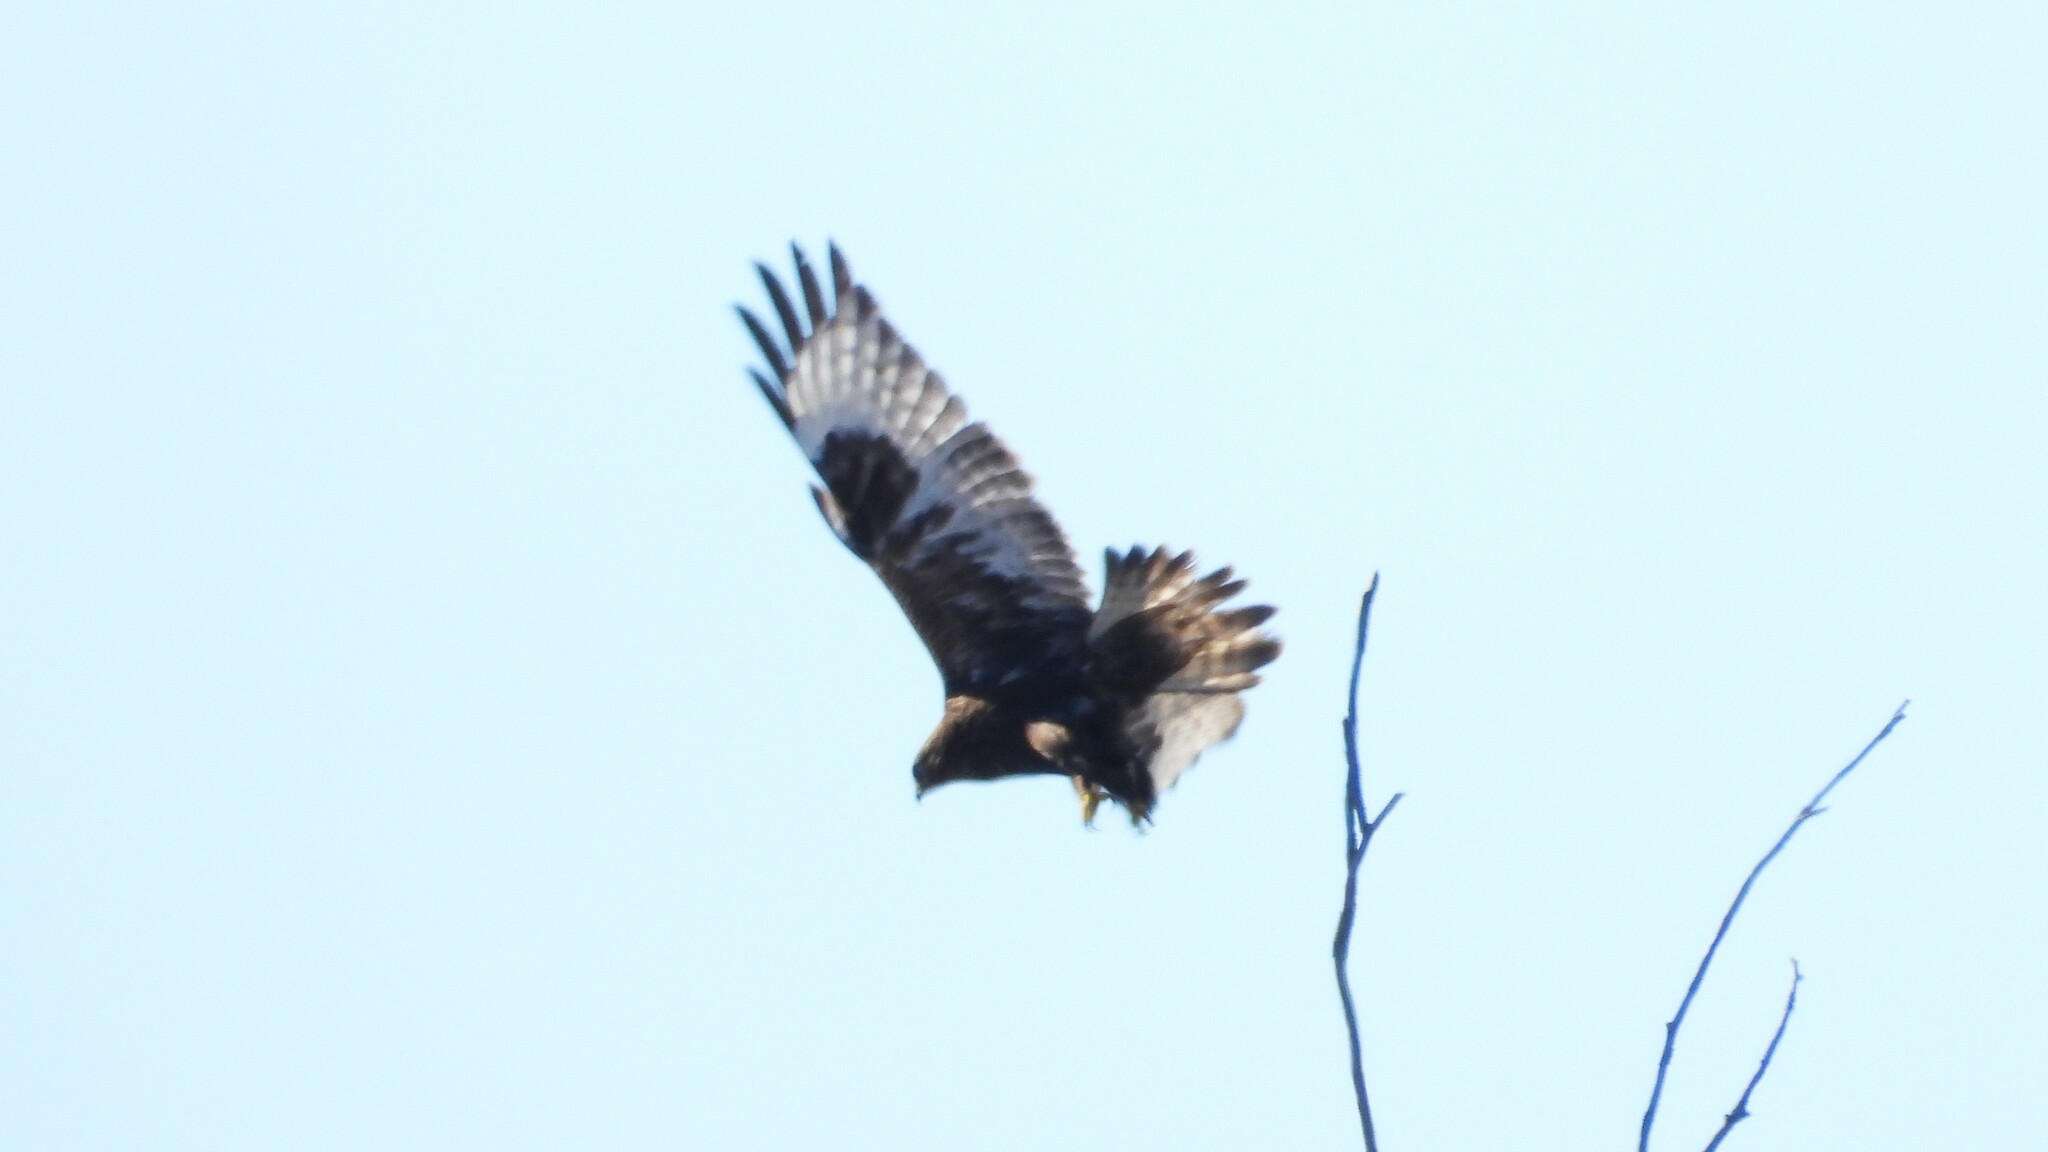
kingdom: Animalia
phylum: Chordata
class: Aves
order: Accipitriformes
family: Accipitridae
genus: Buteo
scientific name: Buteo lagopus
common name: Rough-legged buzzard
